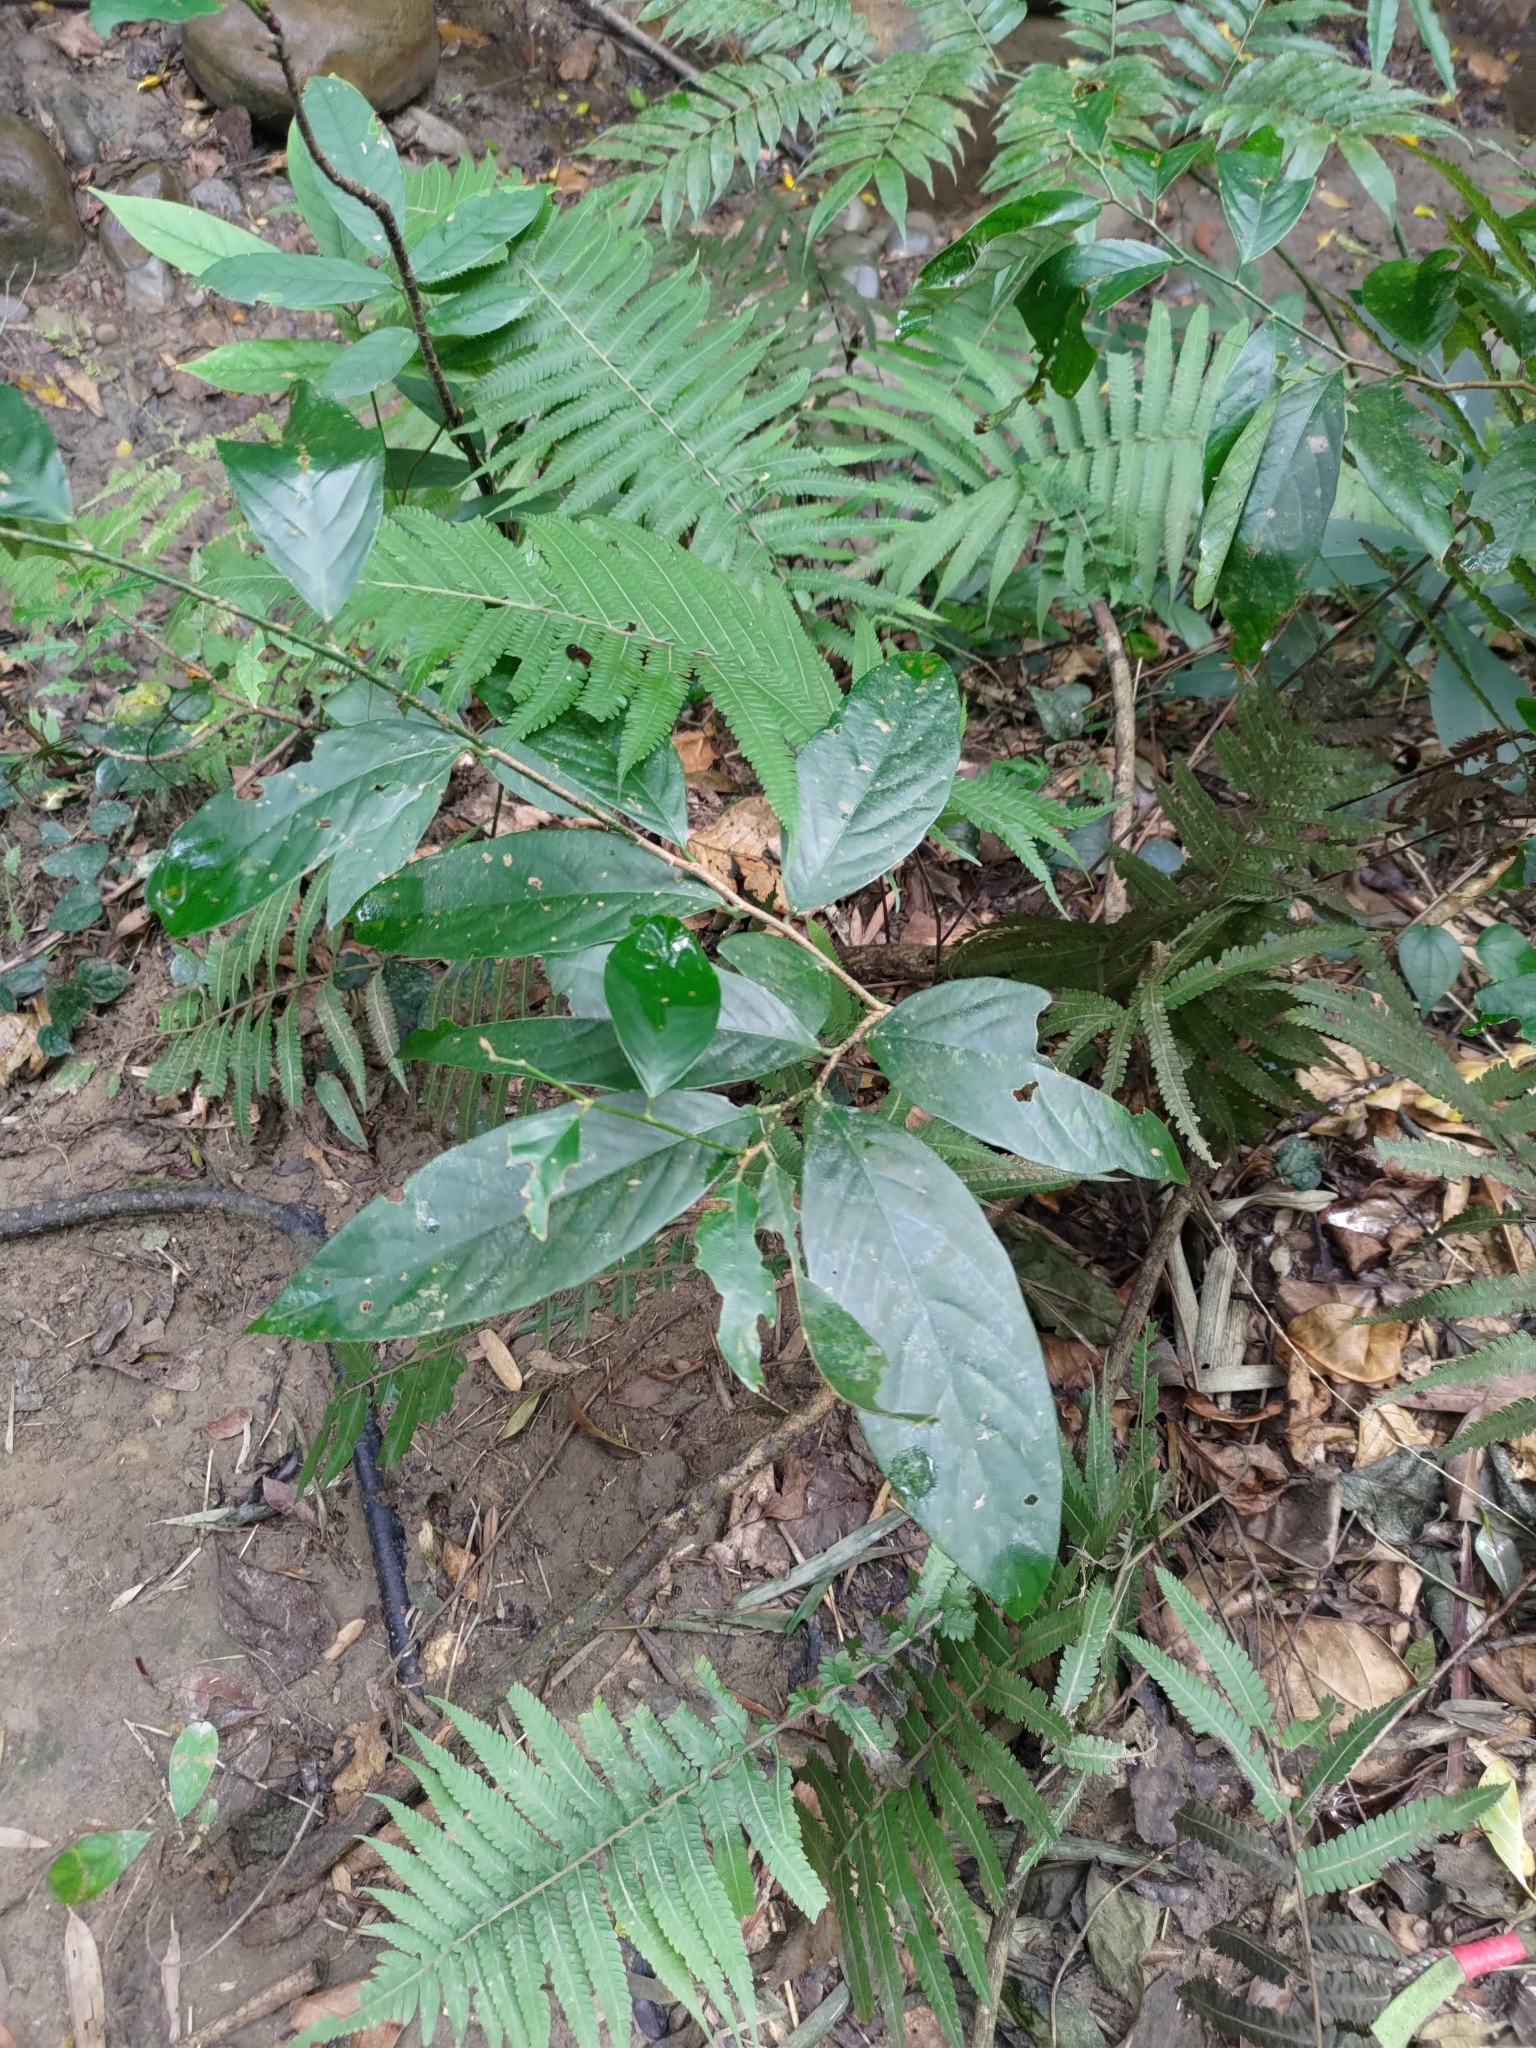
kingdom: Plantae
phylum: Tracheophyta
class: Magnoliopsida
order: Malpighiales
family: Phyllanthaceae
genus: Bridelia
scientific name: Bridelia balansae
